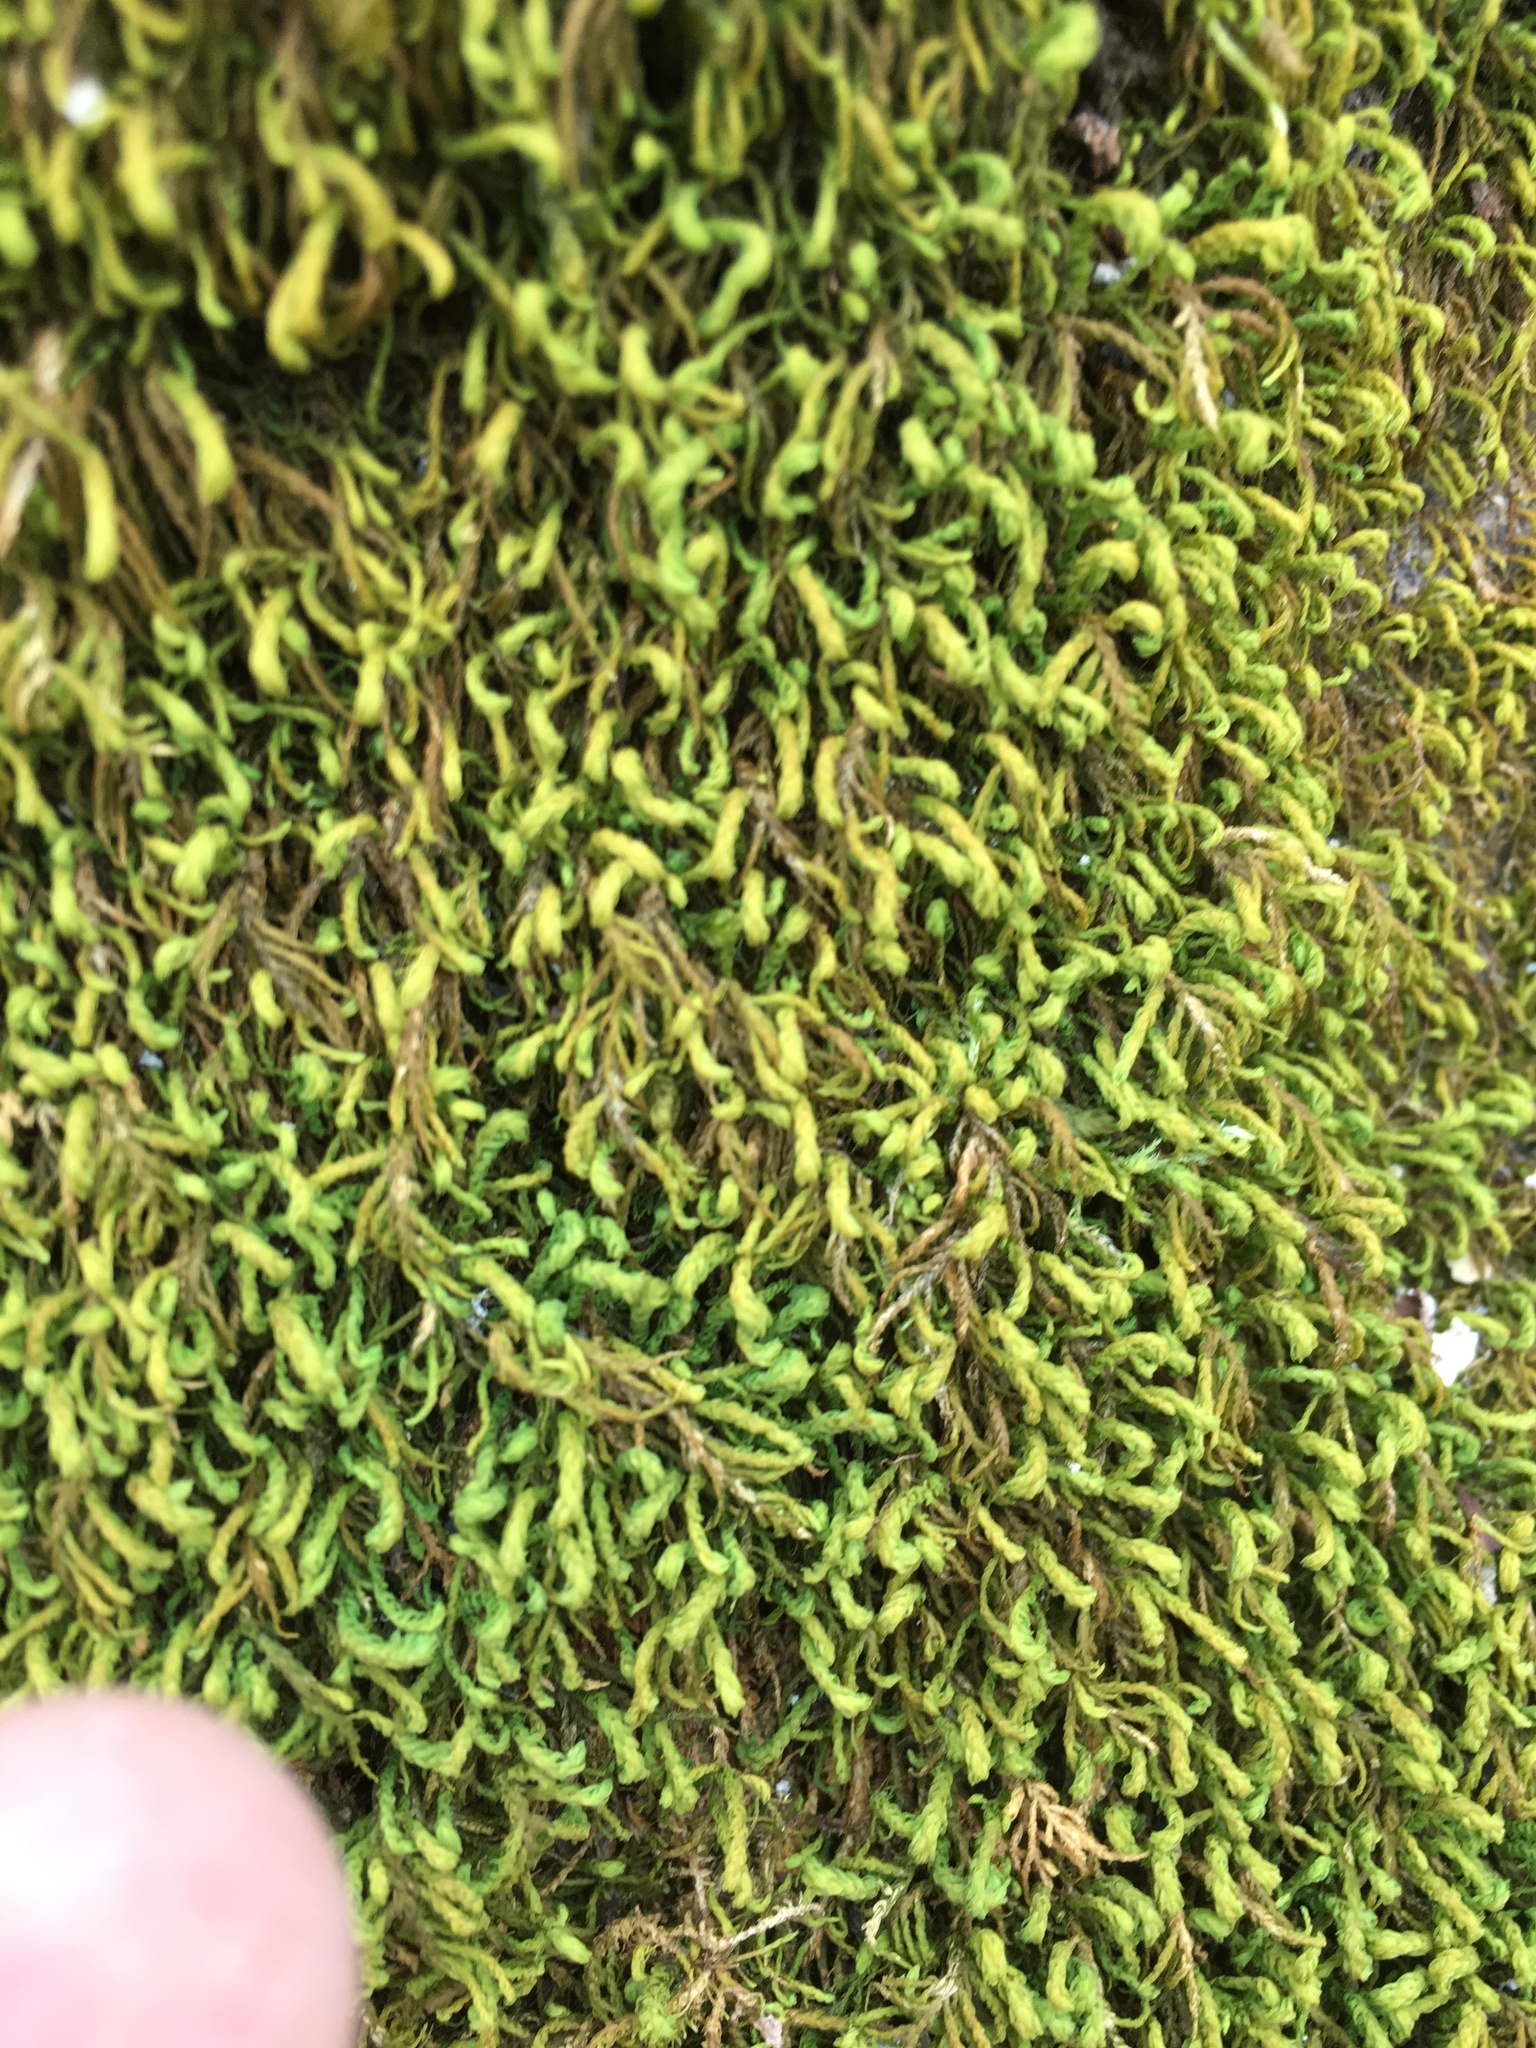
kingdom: Plantae
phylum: Bryophyta
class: Bryopsida
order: Hypnales
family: Neckeraceae
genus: Pseudanomodon
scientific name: Pseudanomodon attenuatus
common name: Tree-skirt moss
